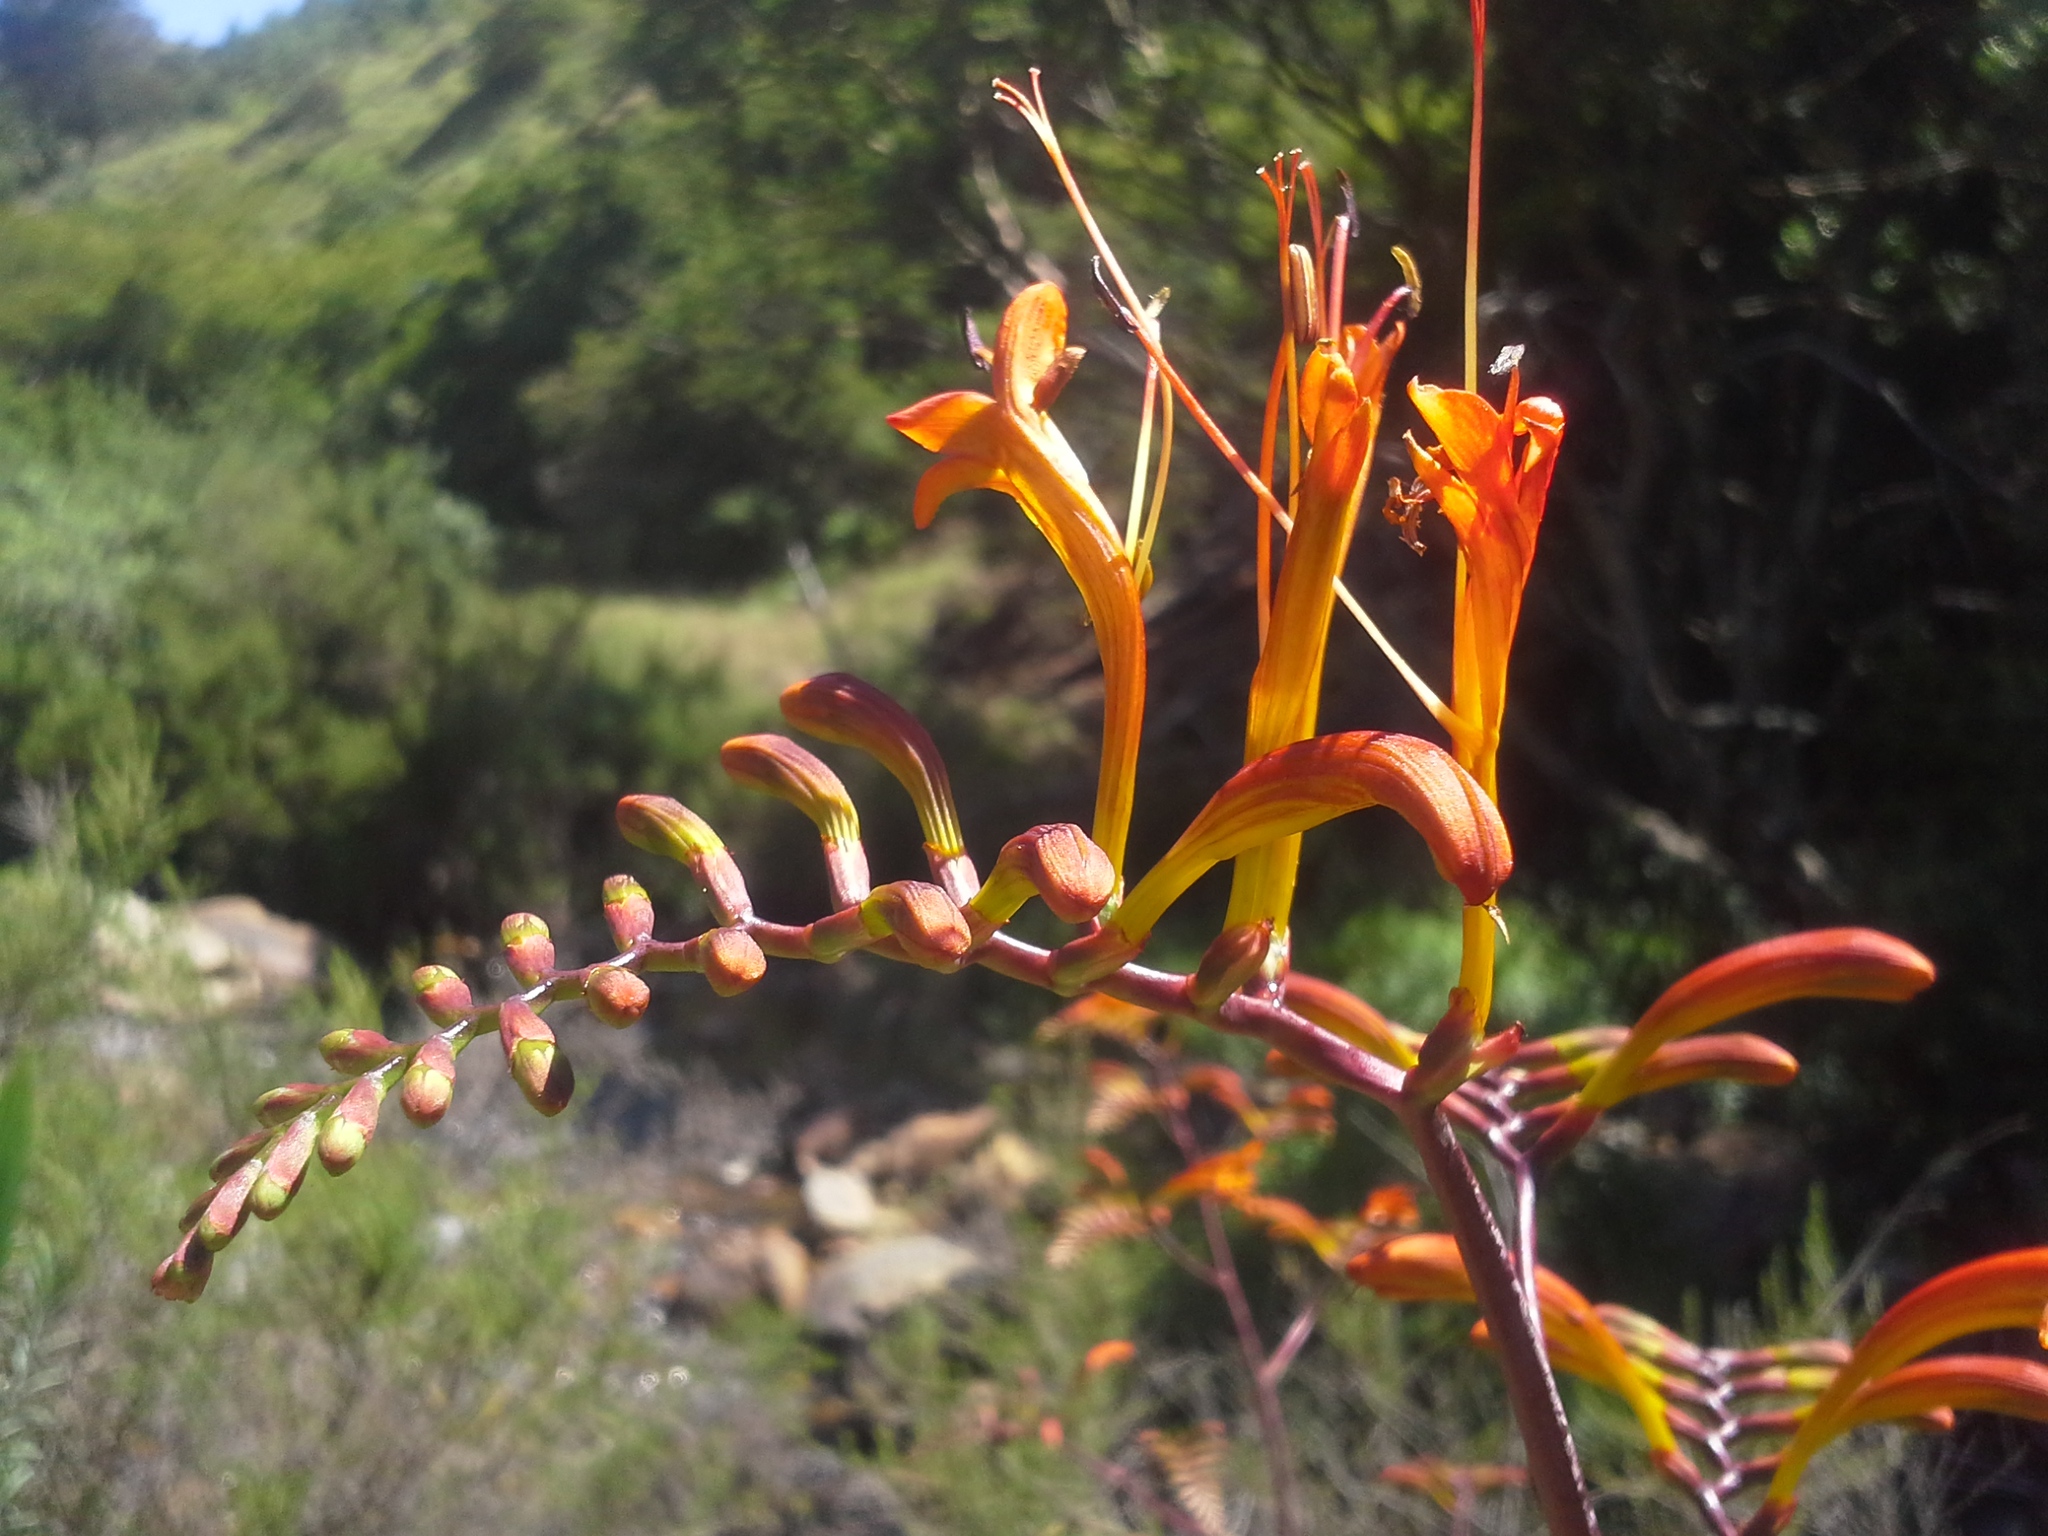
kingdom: Plantae
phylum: Tracheophyta
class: Liliopsida
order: Asparagales
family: Iridaceae
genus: Crocosmia
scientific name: Crocosmia paniculata
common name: Aunt eliza
